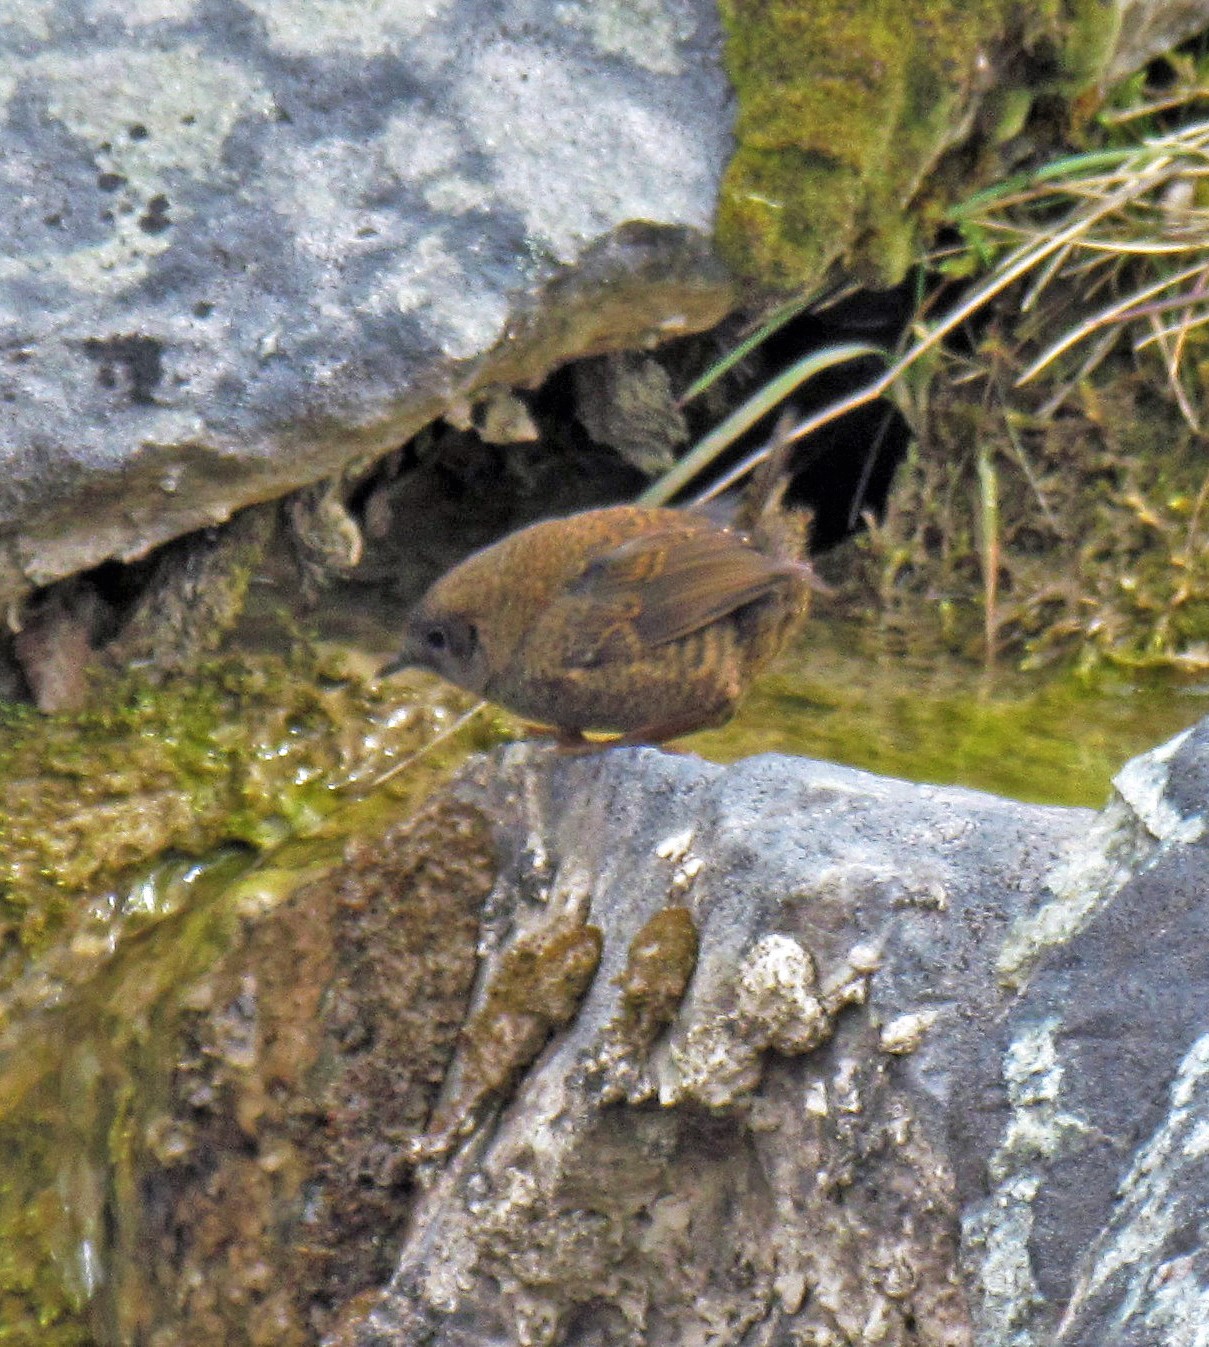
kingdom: Animalia
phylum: Chordata
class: Aves
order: Passeriformes
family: Rhinocryptidae
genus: Scytalopus
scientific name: Scytalopus magellanicus
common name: Magellanic tapaculo
